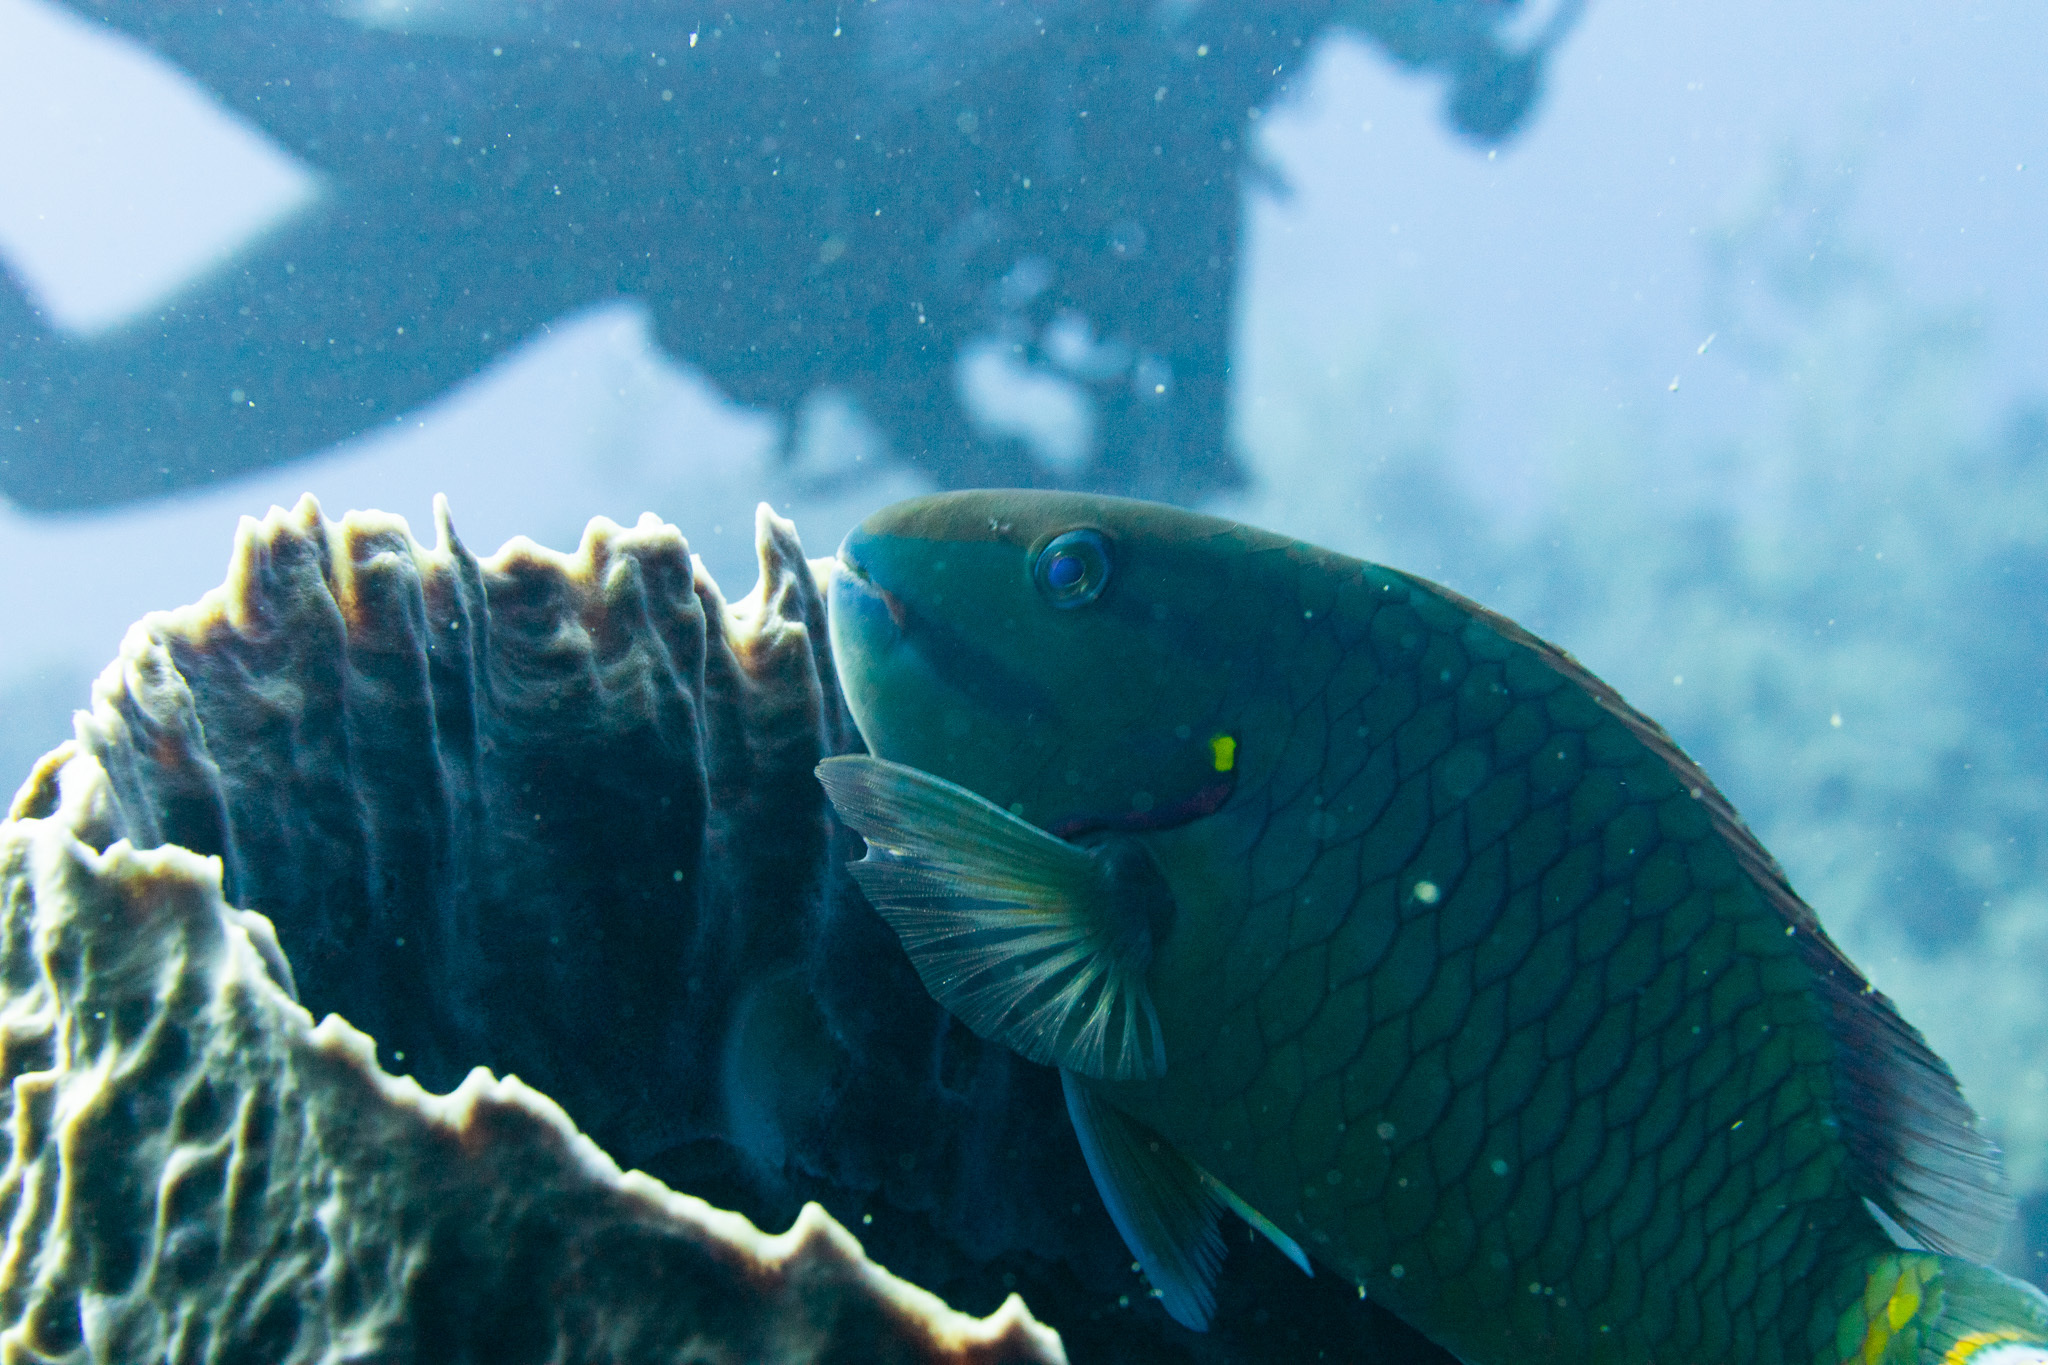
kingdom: Animalia
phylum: Chordata
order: Perciformes
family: Scaridae
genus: Sparisoma
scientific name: Sparisoma viride
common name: Stoplight parrotfish
